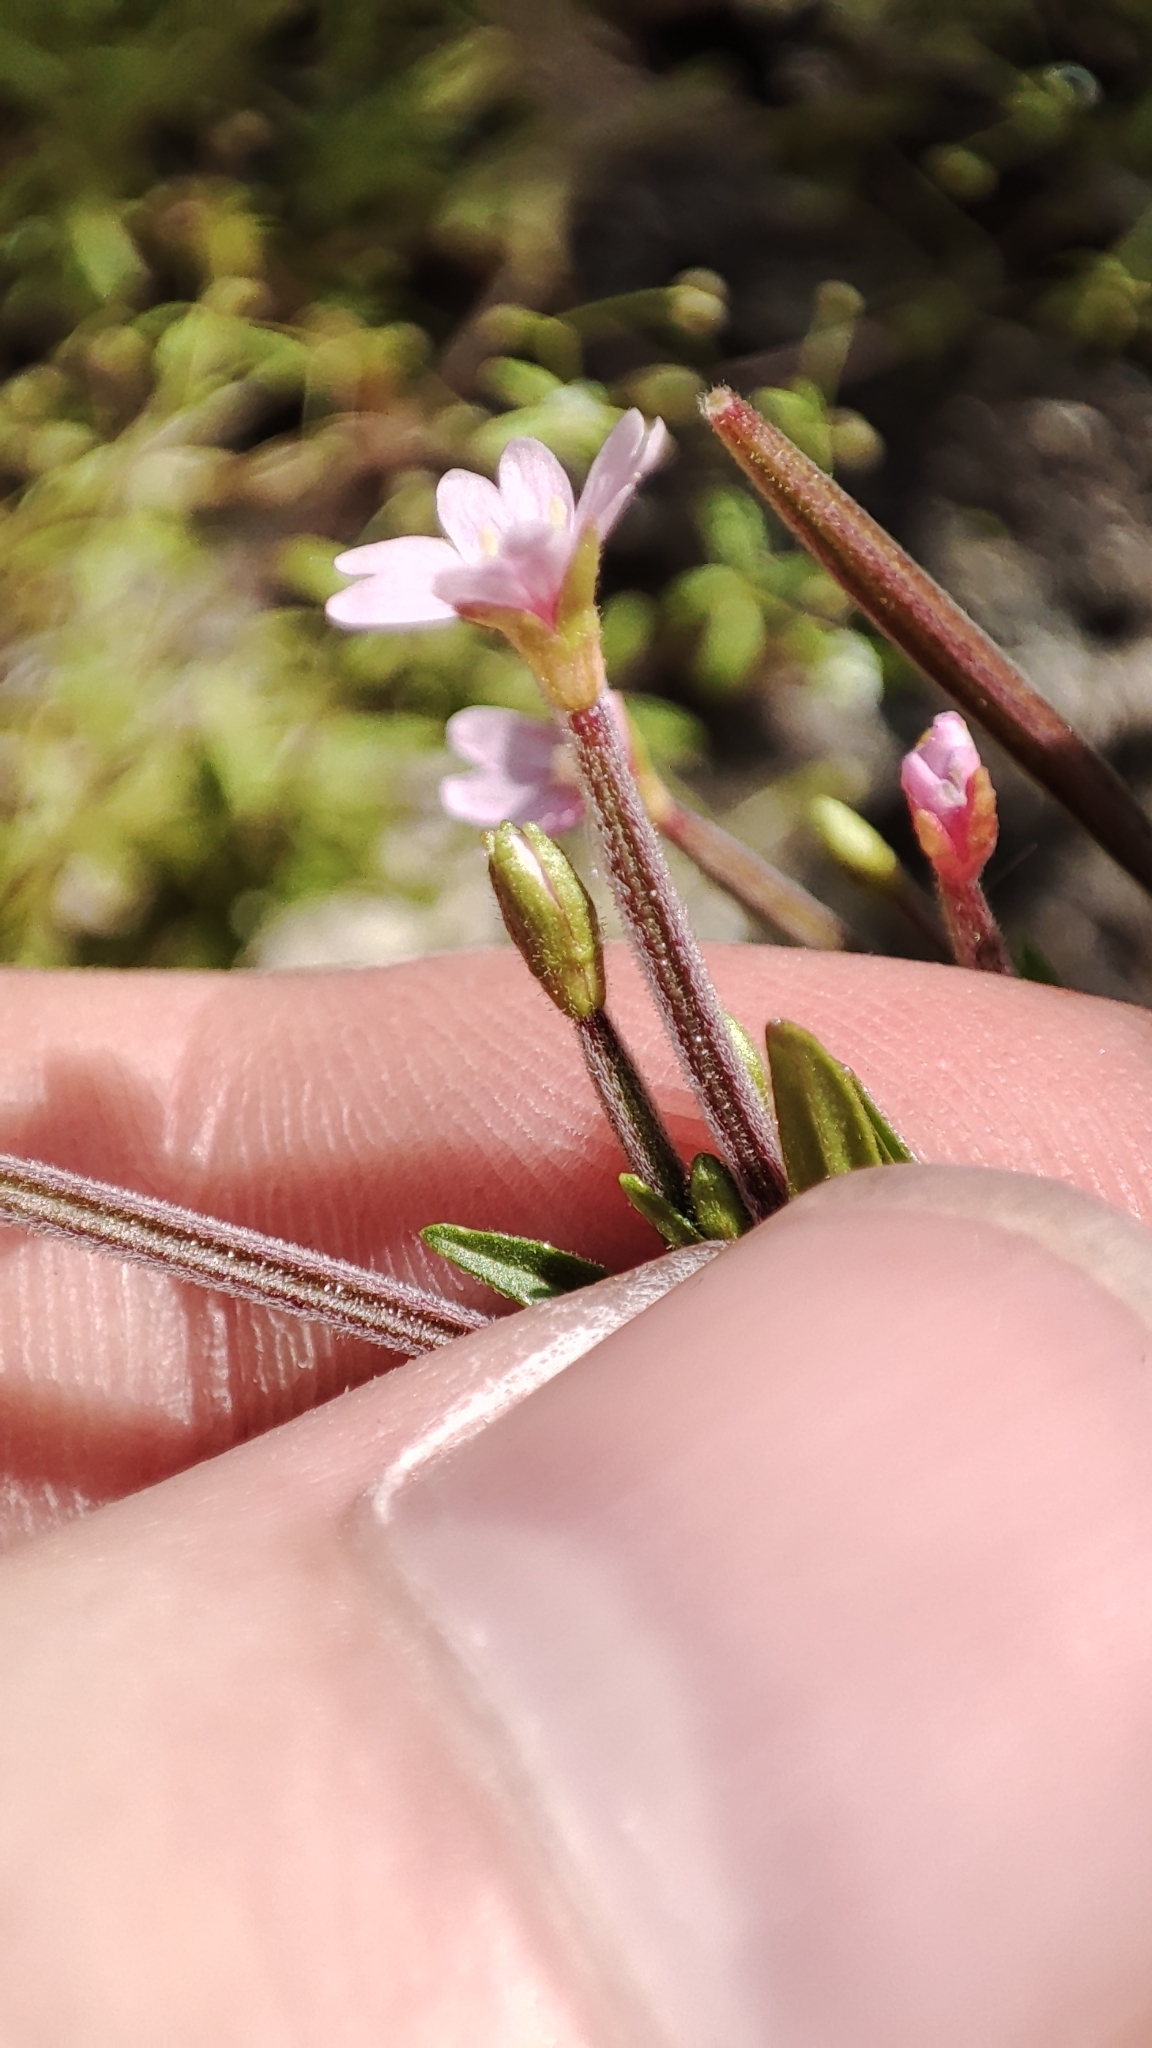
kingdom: Plantae
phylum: Tracheophyta
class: Magnoliopsida
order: Myrtales
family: Onagraceae
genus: Epilobium
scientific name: Epilobium palustre
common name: Marsh willowherb
